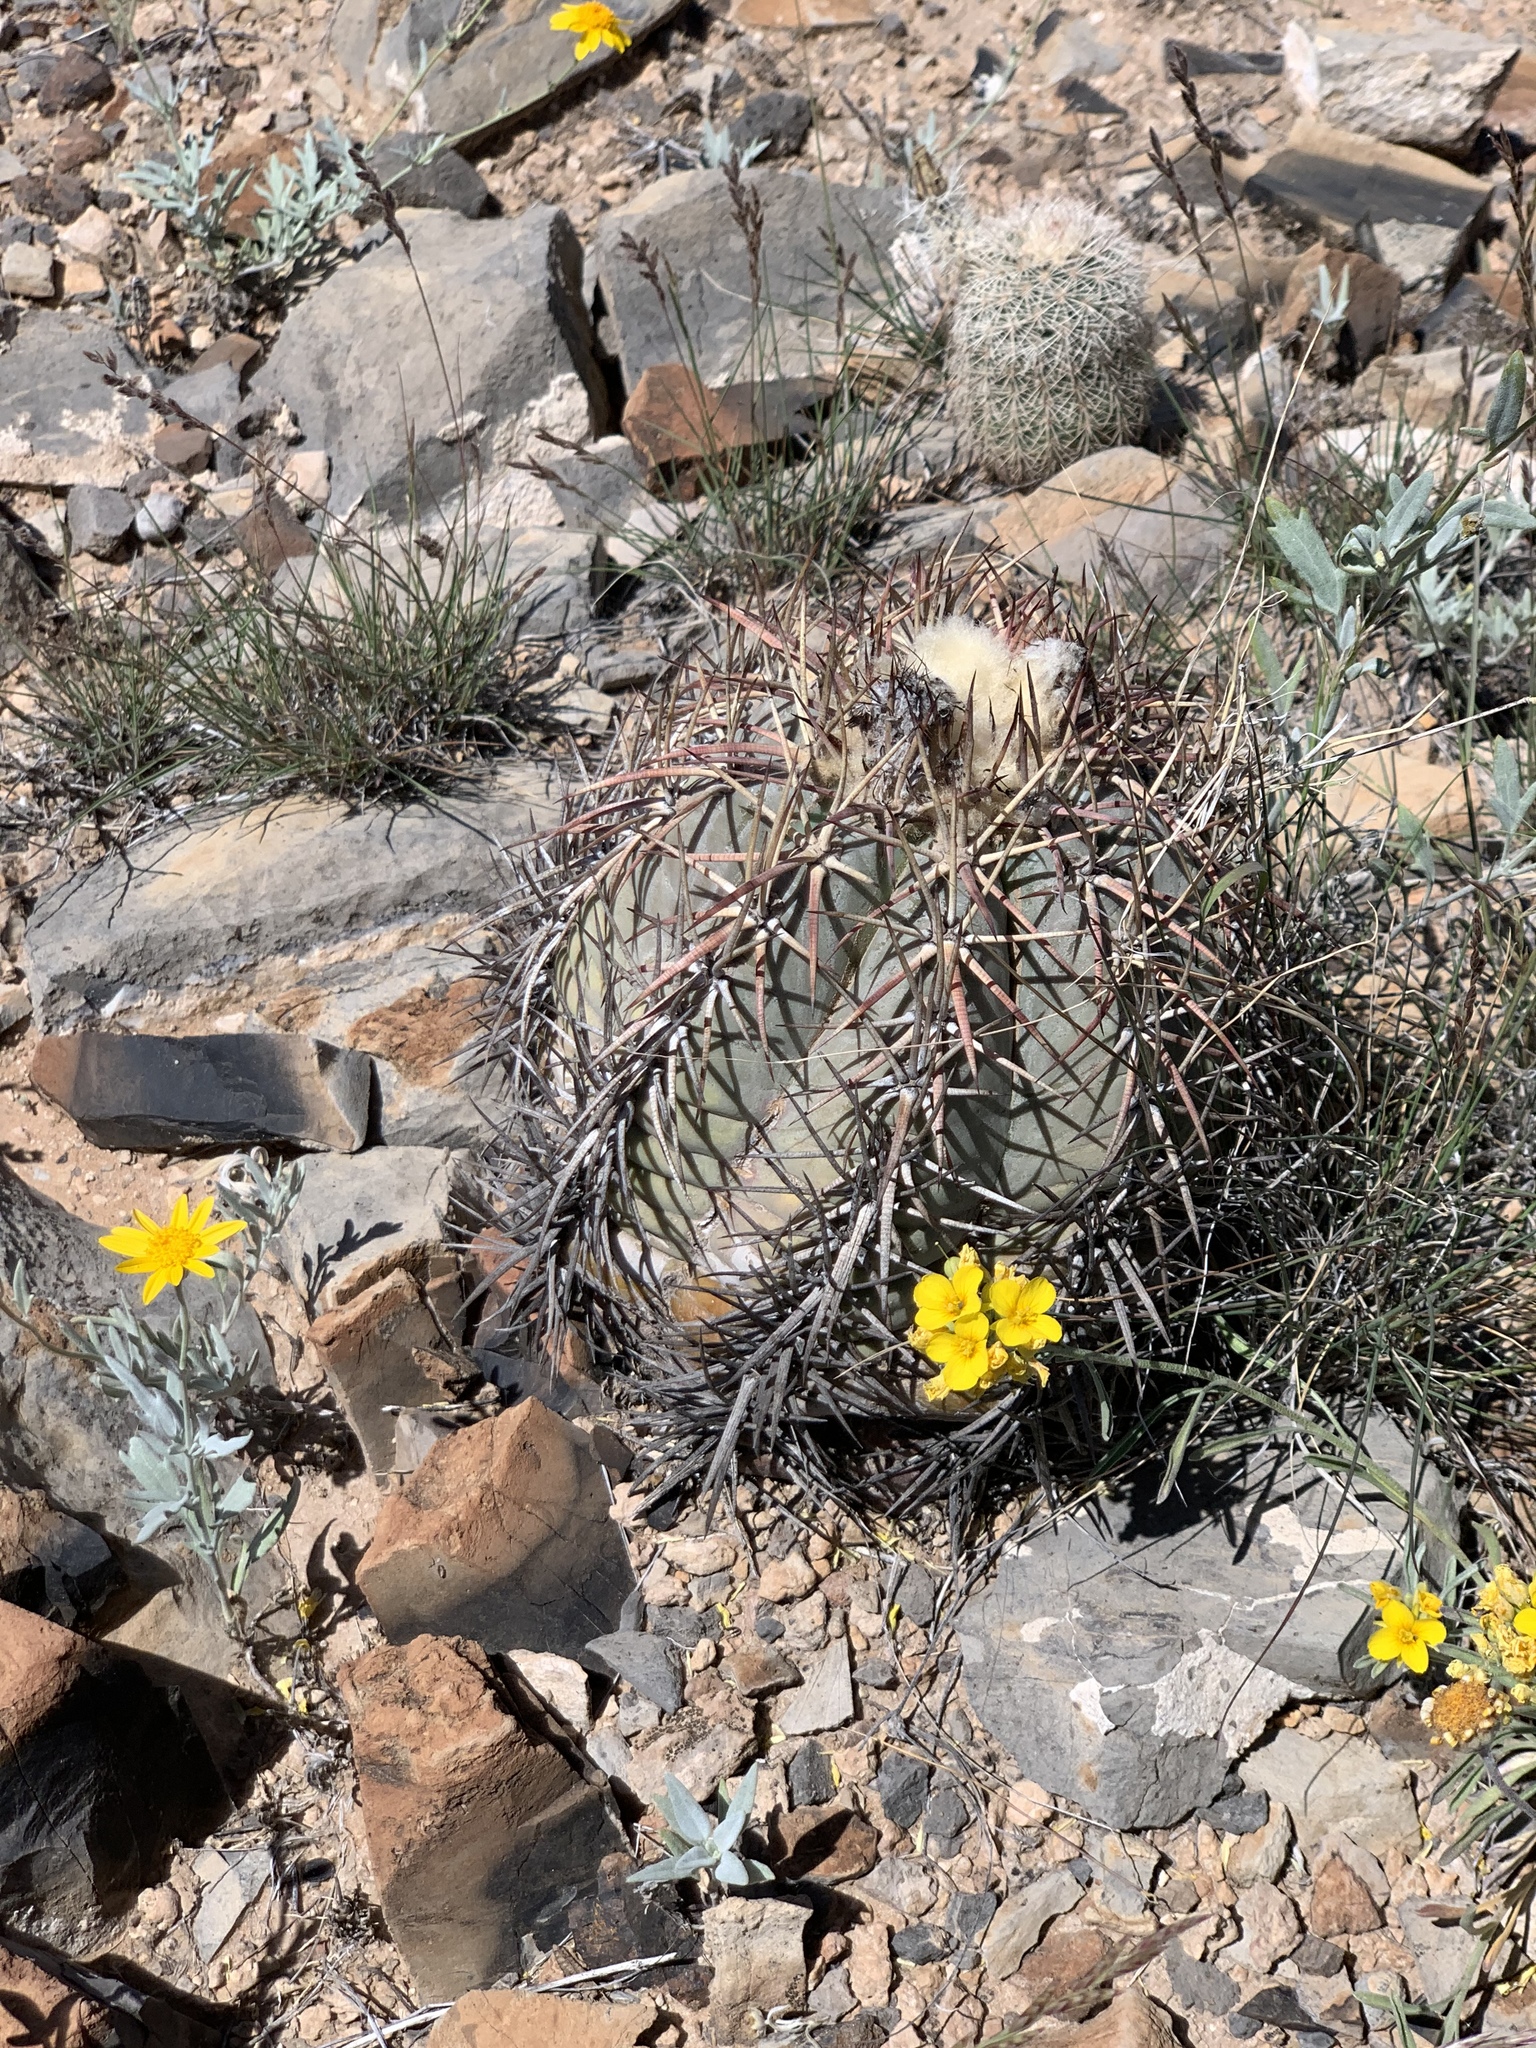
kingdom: Plantae
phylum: Tracheophyta
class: Magnoliopsida
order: Caryophyllales
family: Cactaceae
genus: Echinocactus
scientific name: Echinocactus horizonthalonius
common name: Devilshead
